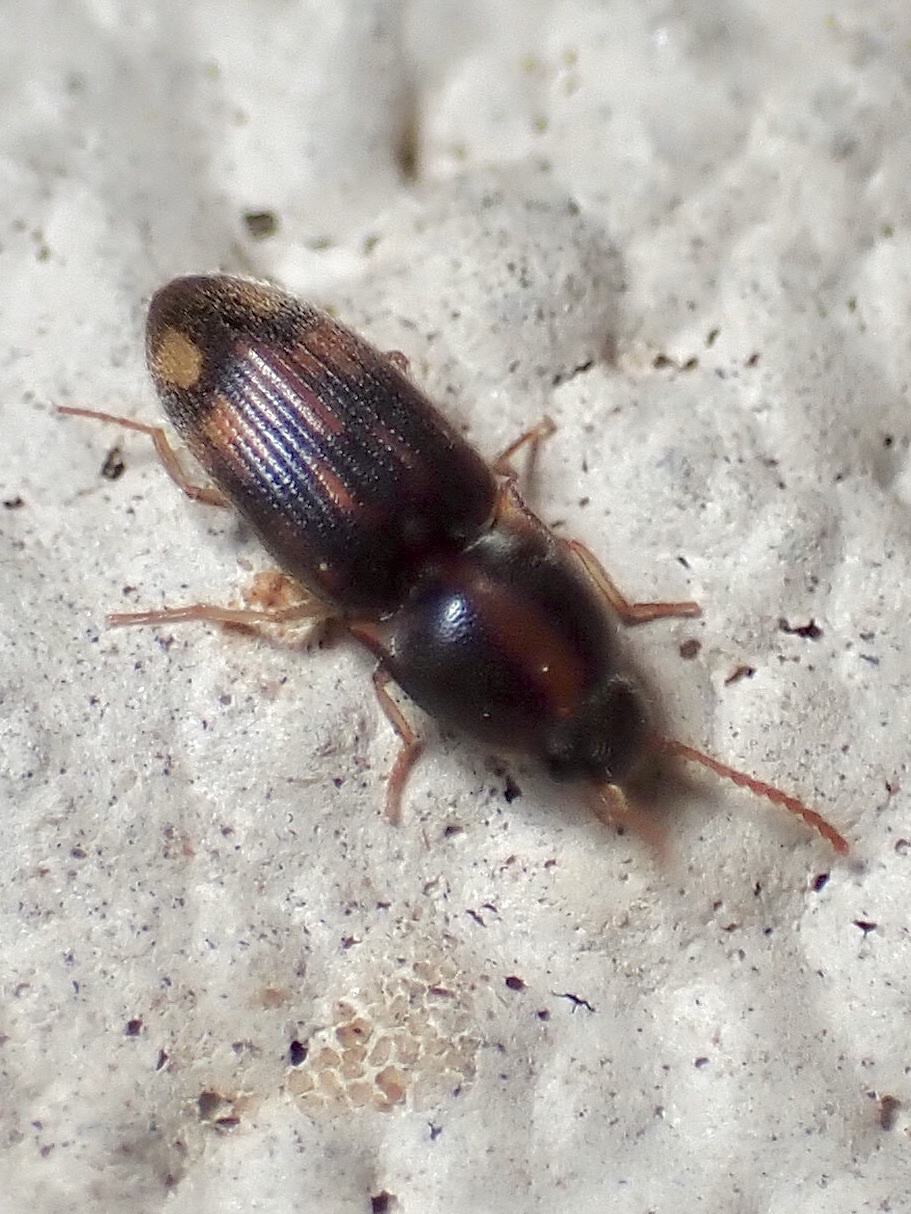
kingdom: Animalia
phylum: Arthropoda
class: Insecta
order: Coleoptera
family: Elateridae
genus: Monocrepidius
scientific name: Monocrepidius bellus
